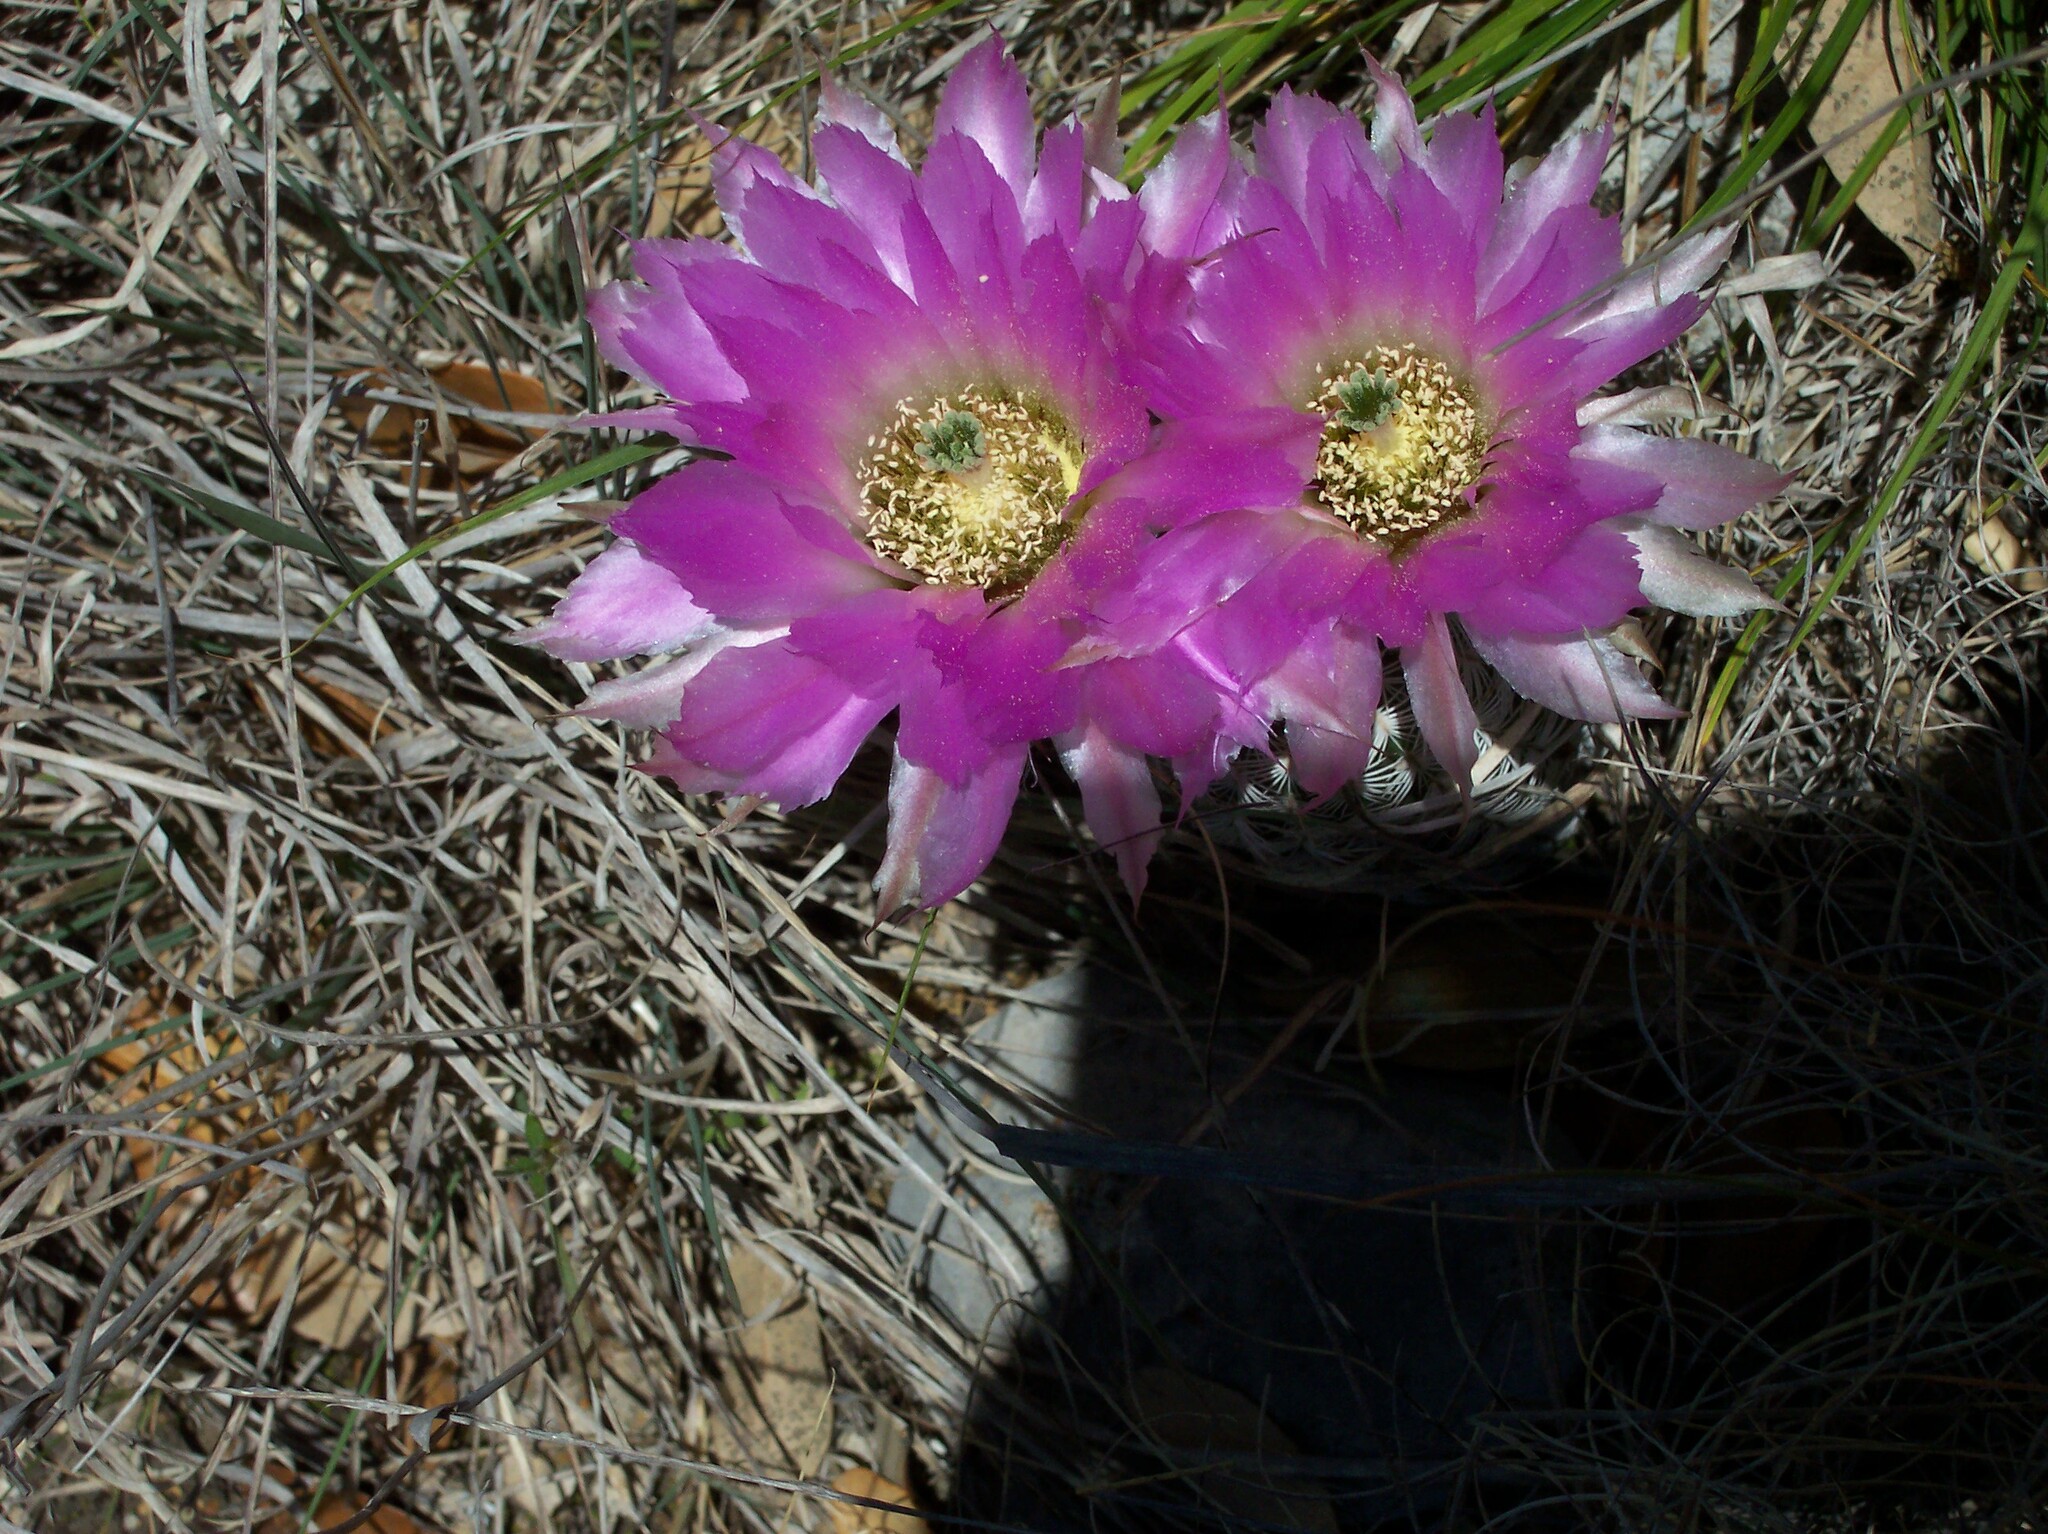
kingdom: Plantae
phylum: Tracheophyta
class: Magnoliopsida
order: Caryophyllales
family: Cactaceae
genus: Echinocereus
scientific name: Echinocereus reichenbachii
